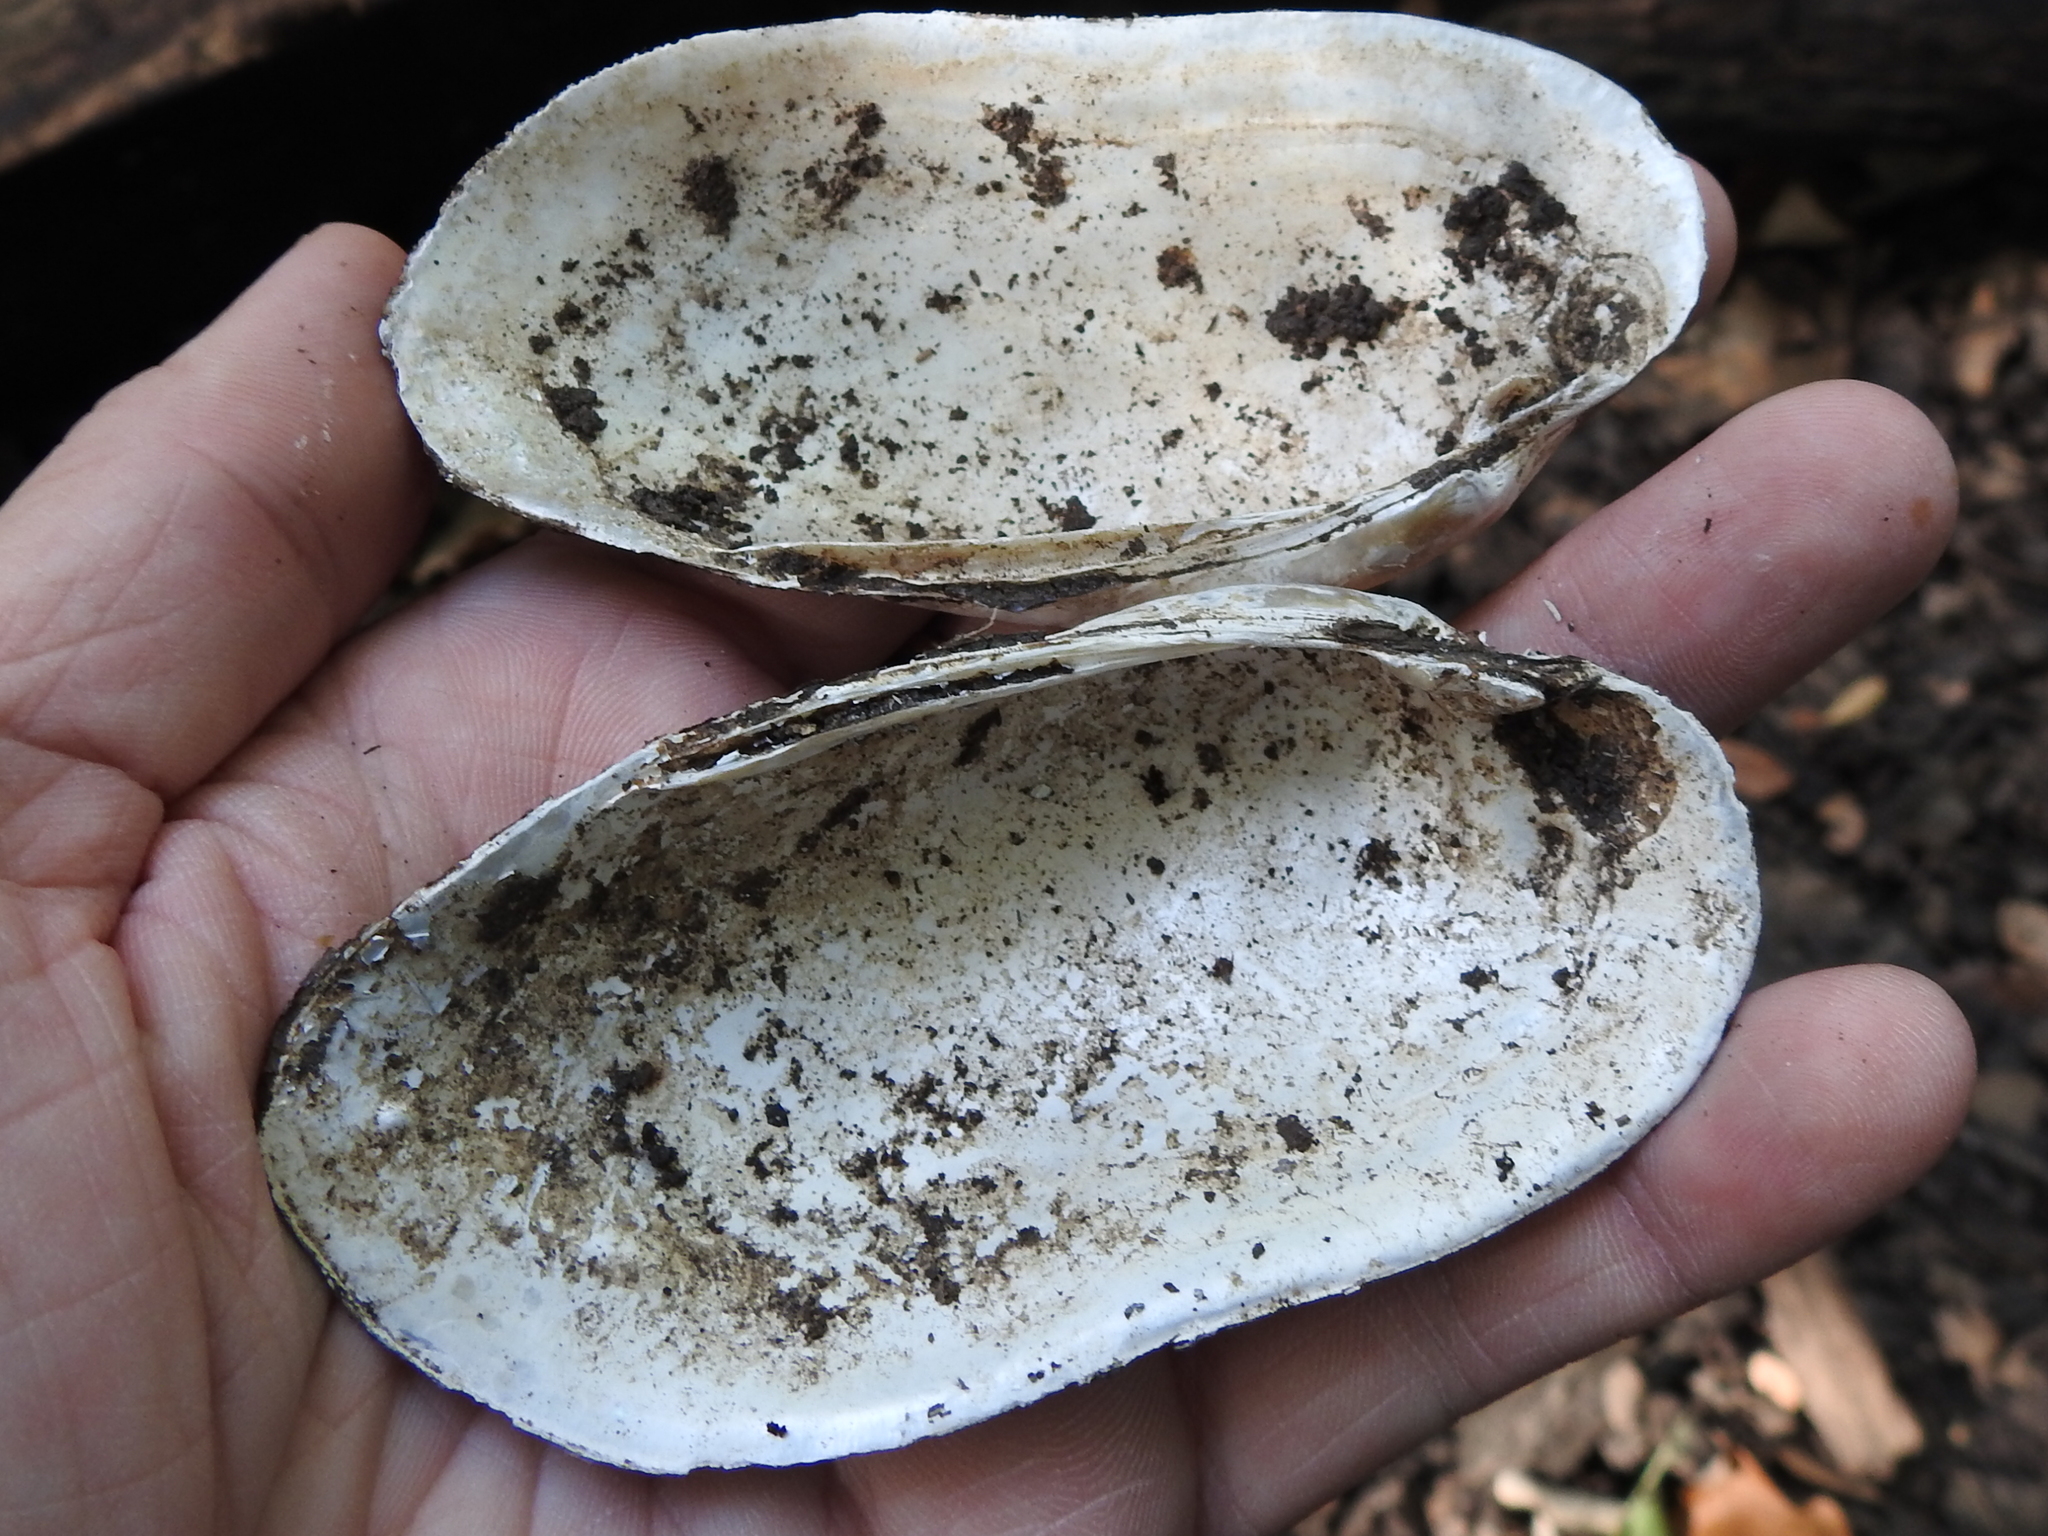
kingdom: Animalia
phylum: Mollusca
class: Bivalvia
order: Unionida
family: Unionidae
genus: Lampsilis
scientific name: Lampsilis teres
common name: Yellow sandshell
